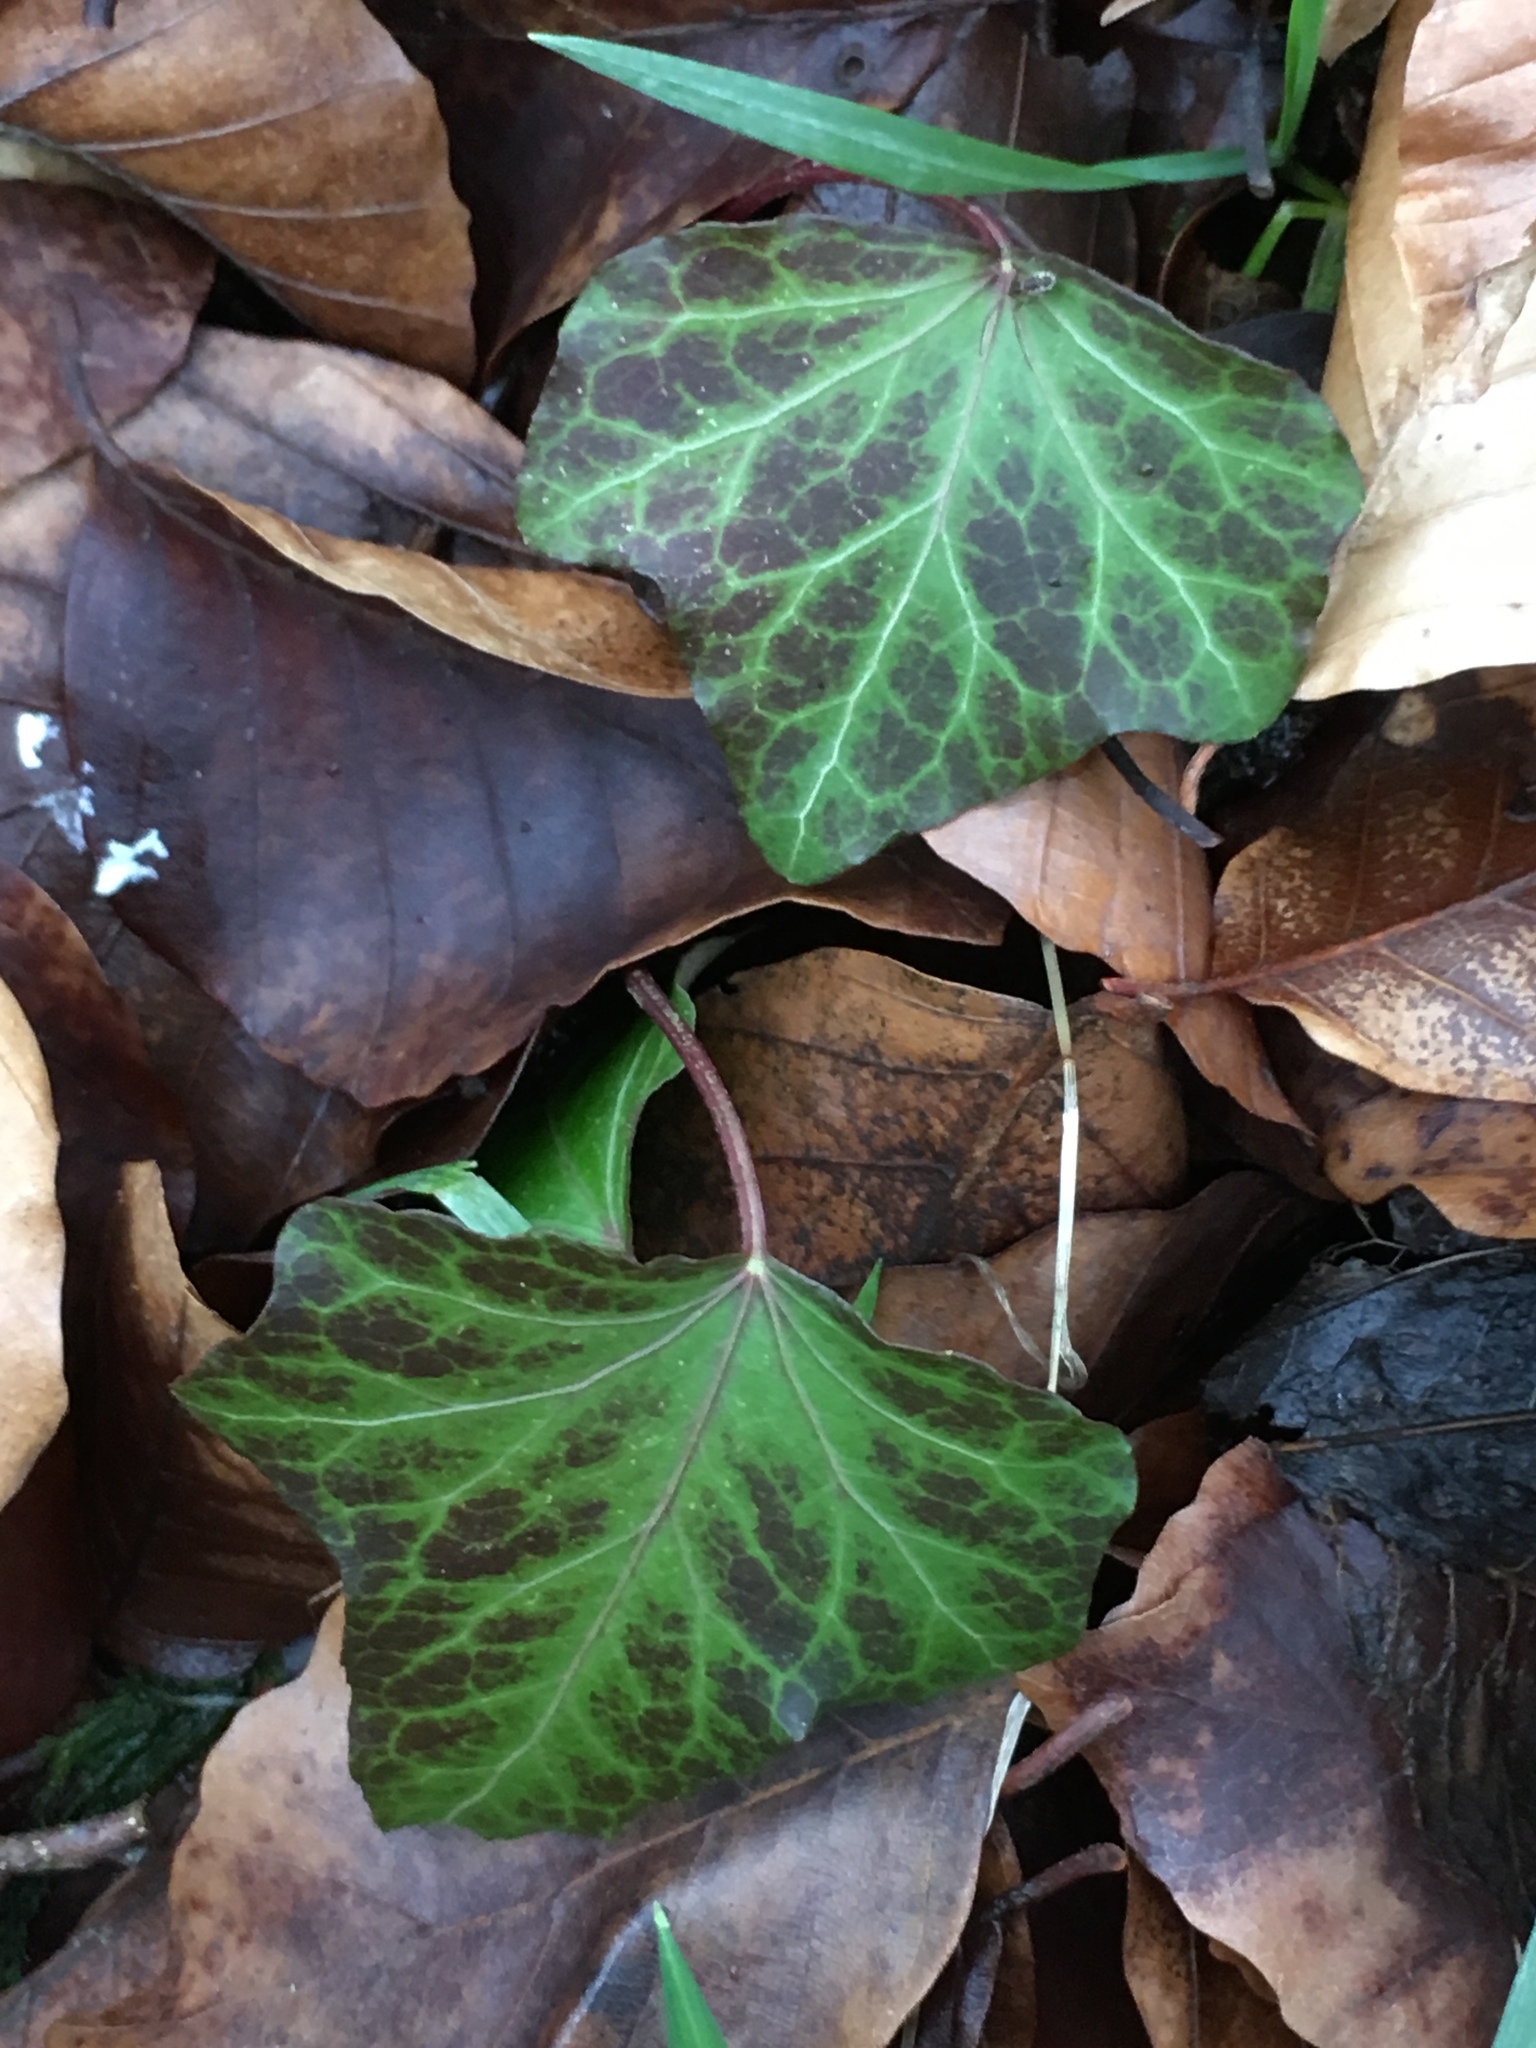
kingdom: Plantae
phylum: Tracheophyta
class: Magnoliopsida
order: Apiales
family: Araliaceae
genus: Hedera
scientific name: Hedera helix
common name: Ivy
